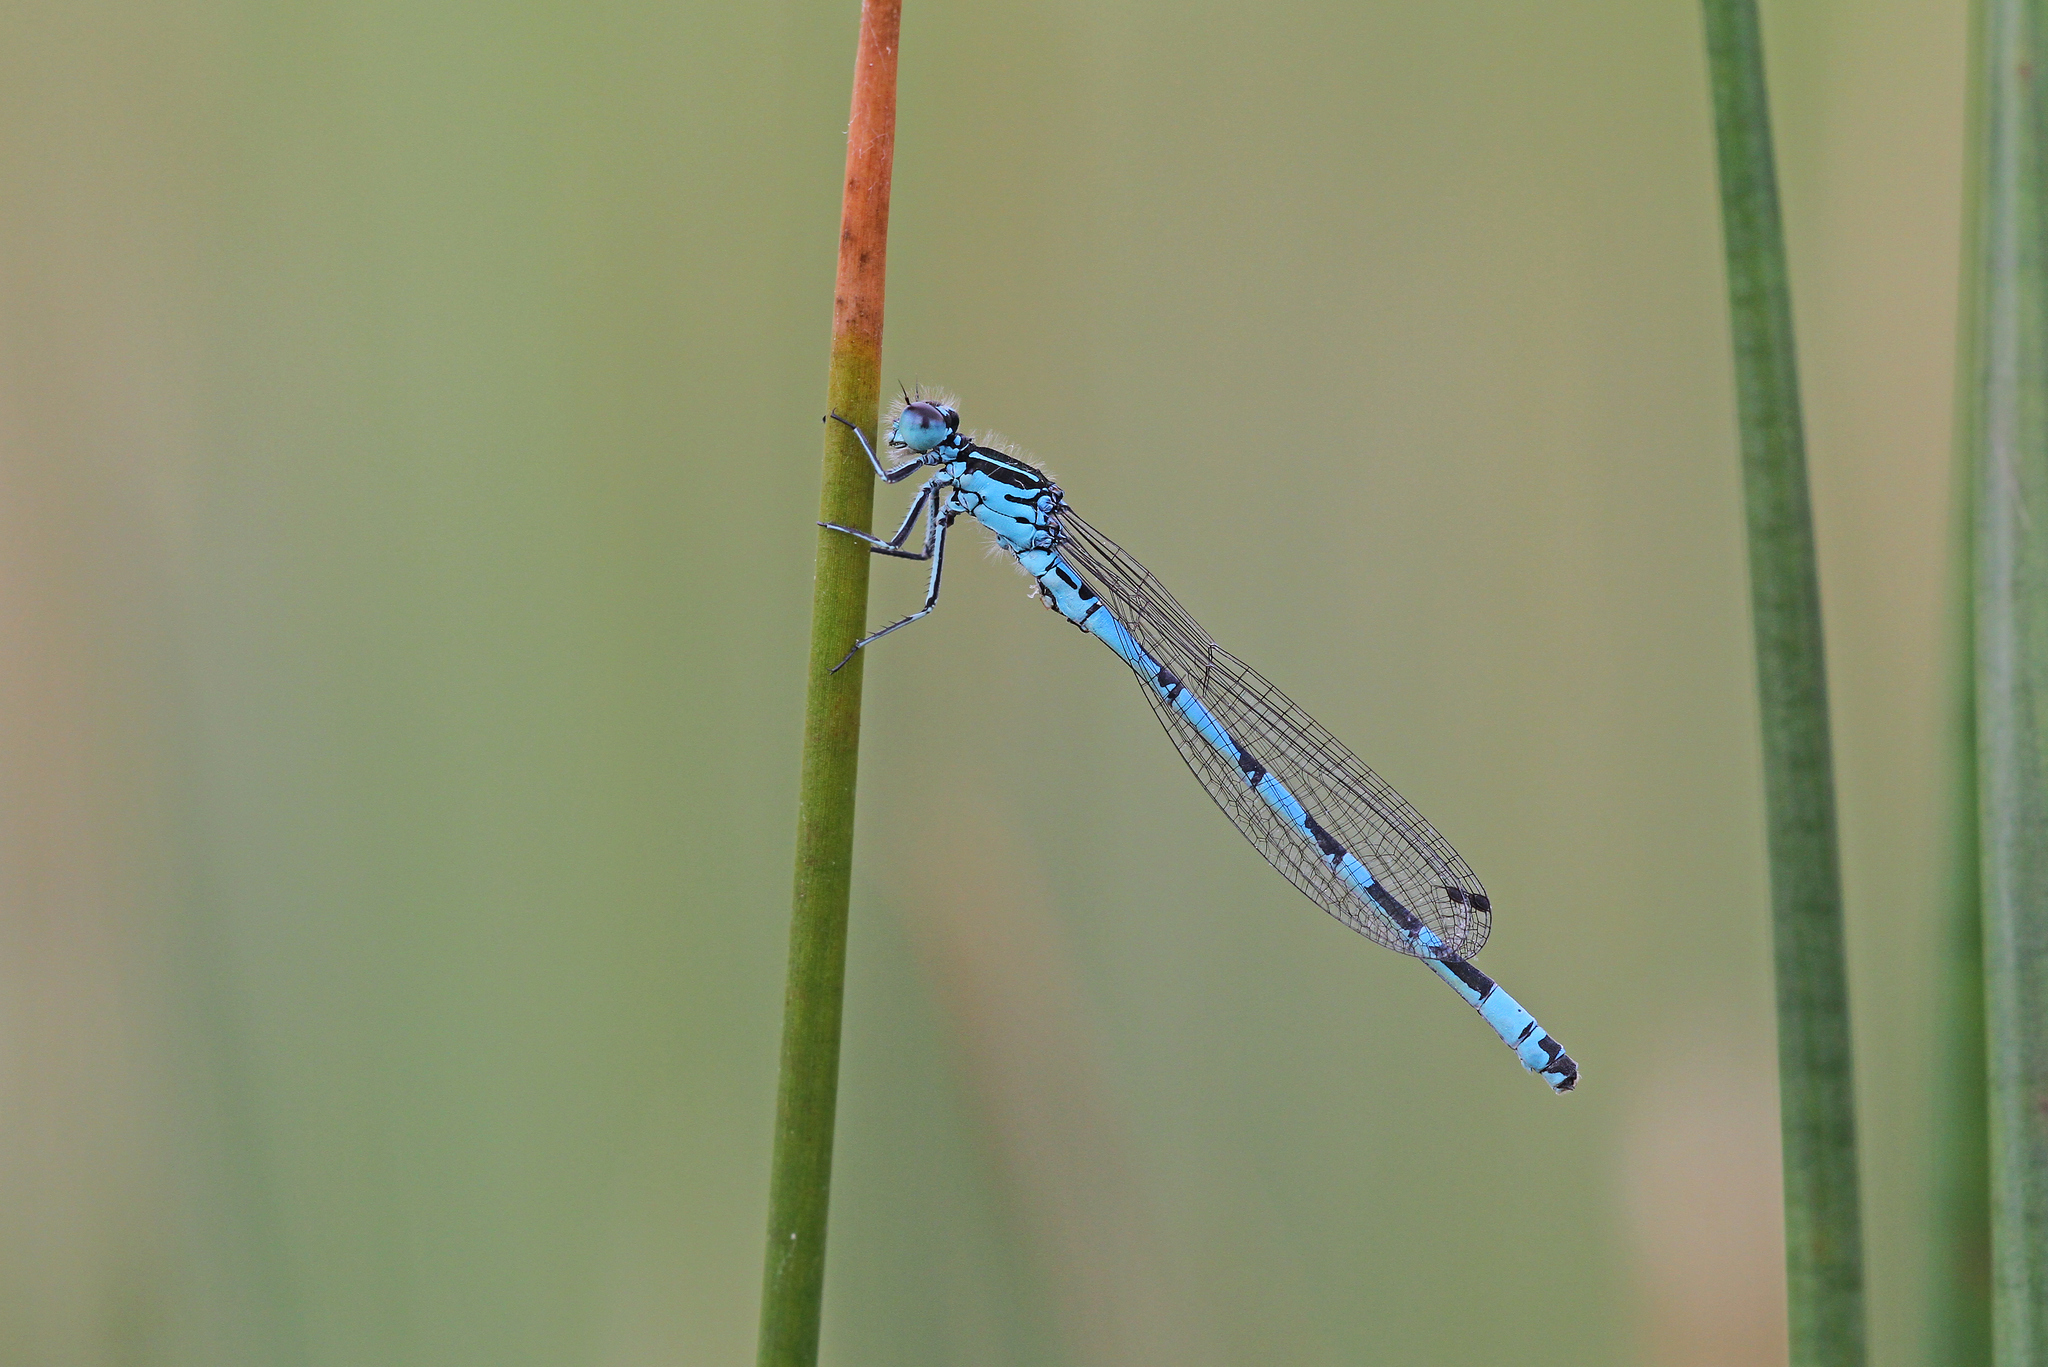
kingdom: Animalia
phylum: Arthropoda
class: Insecta
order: Odonata
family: Coenagrionidae
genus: Coenagrion
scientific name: Coenagrion ornatum
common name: Ornate bluet
